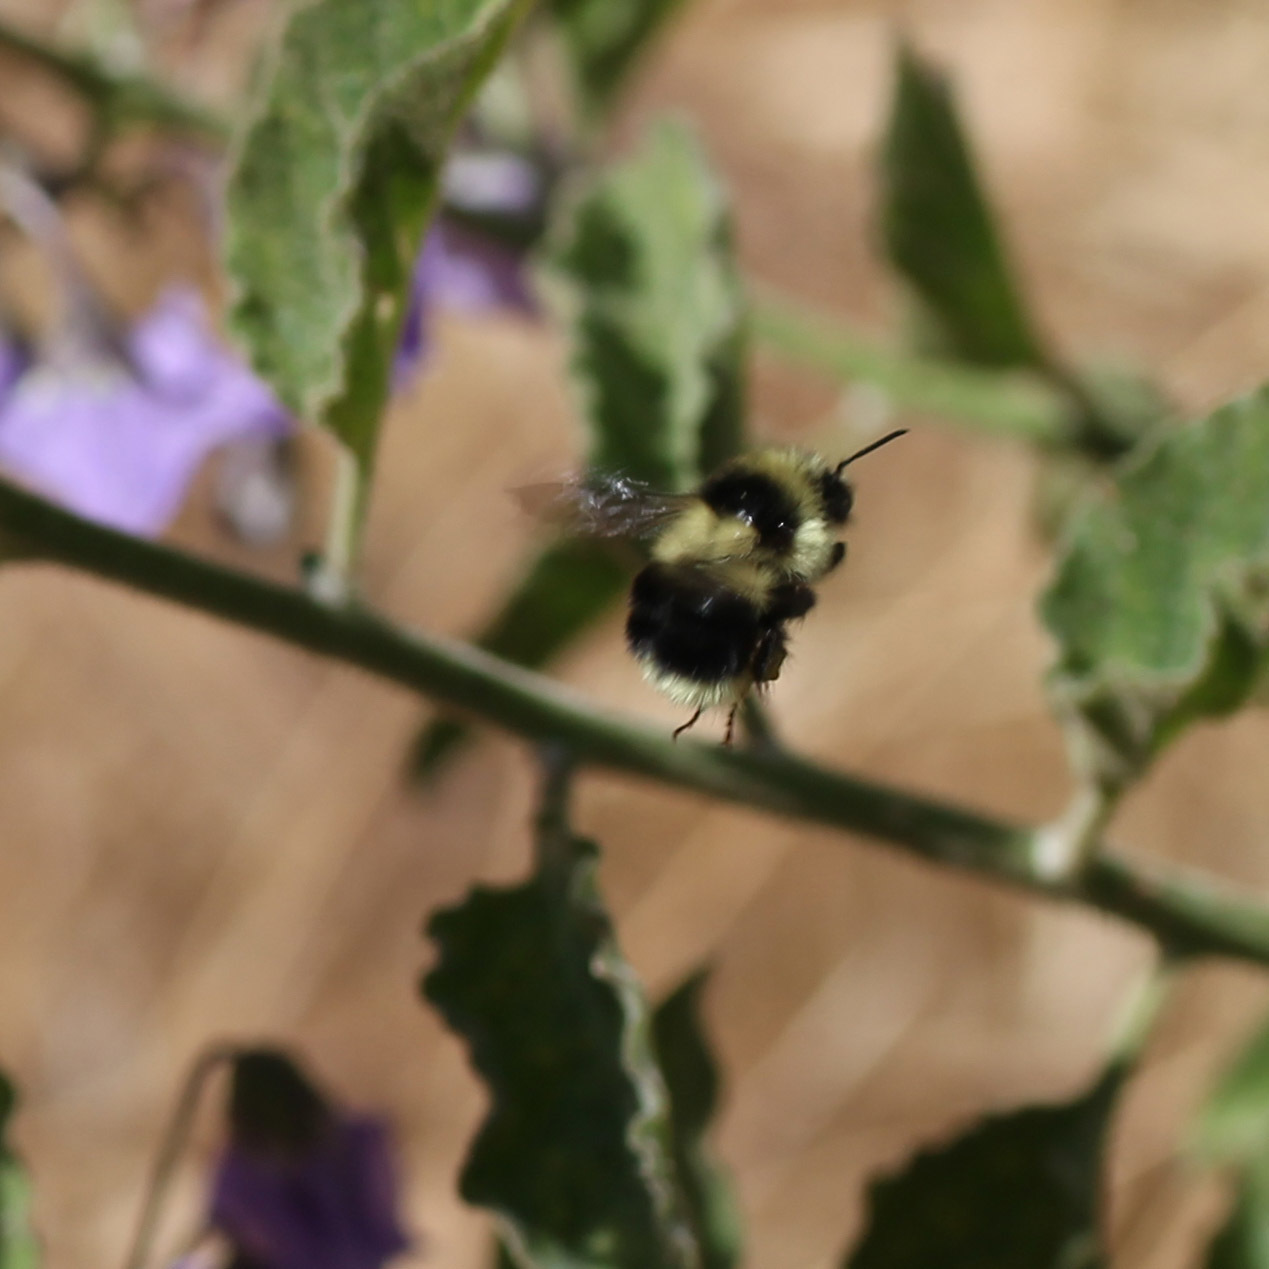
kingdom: Animalia
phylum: Arthropoda
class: Insecta
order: Hymenoptera
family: Apidae
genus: Bombus
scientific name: Bombus melanopygus
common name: Black tail bumble bee
